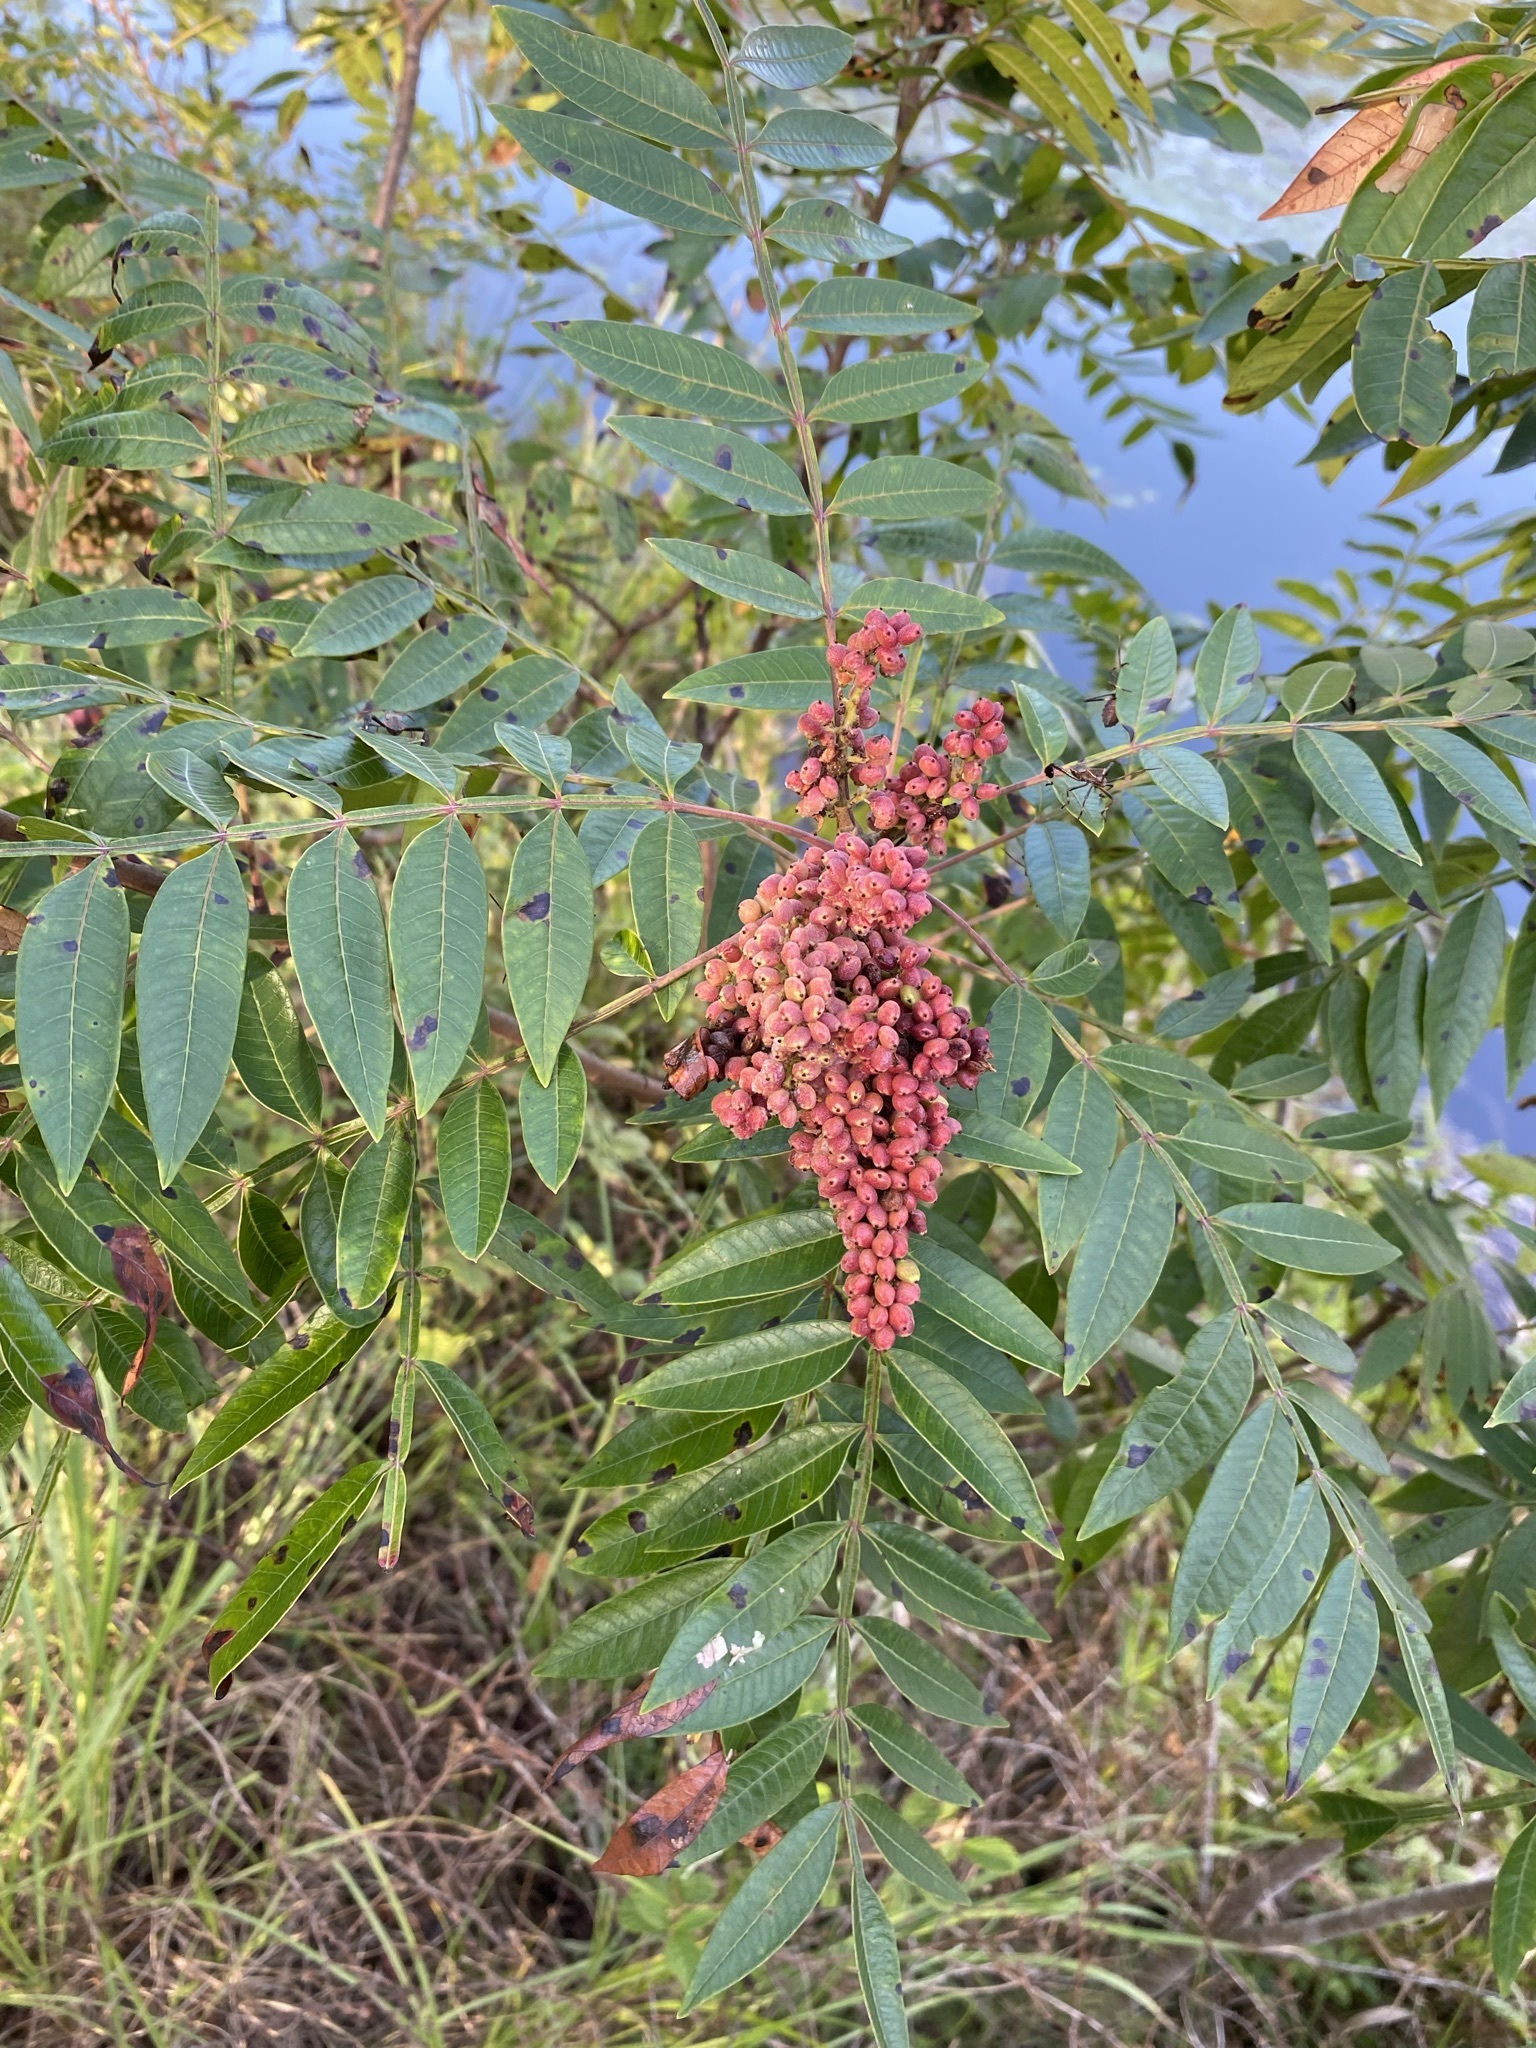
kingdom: Plantae
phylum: Tracheophyta
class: Magnoliopsida
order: Sapindales
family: Anacardiaceae
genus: Rhus
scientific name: Rhus copallina
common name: Shining sumac
